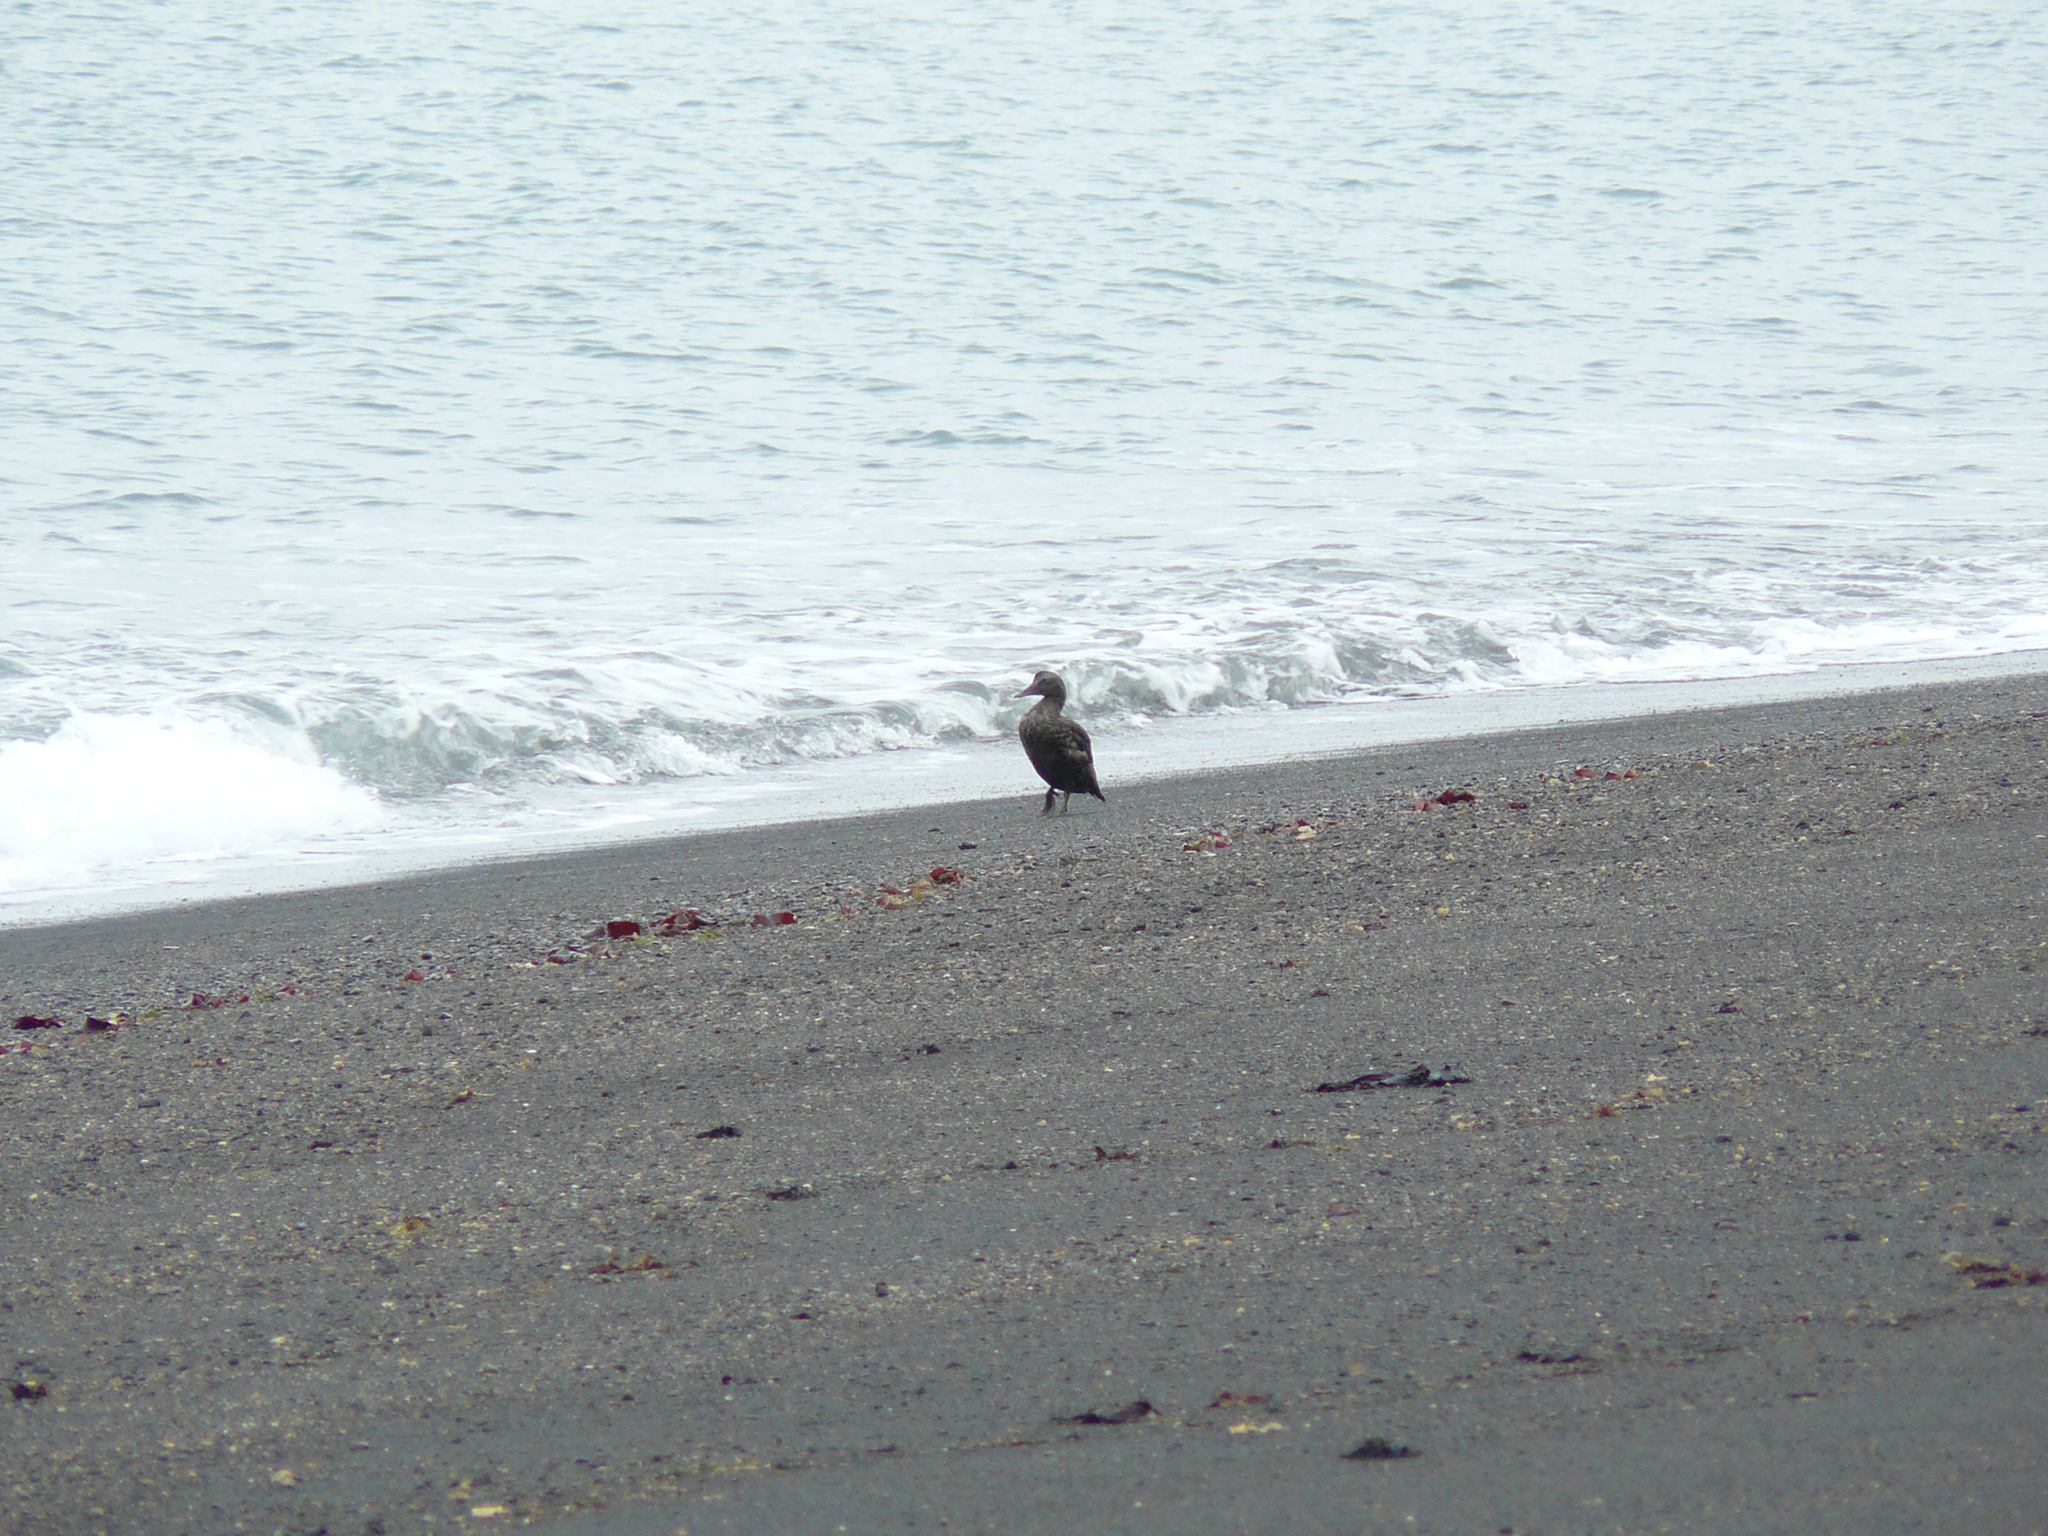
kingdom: Animalia
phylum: Chordata
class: Aves
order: Anseriformes
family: Anatidae
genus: Somateria
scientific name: Somateria mollissima
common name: Common eider
